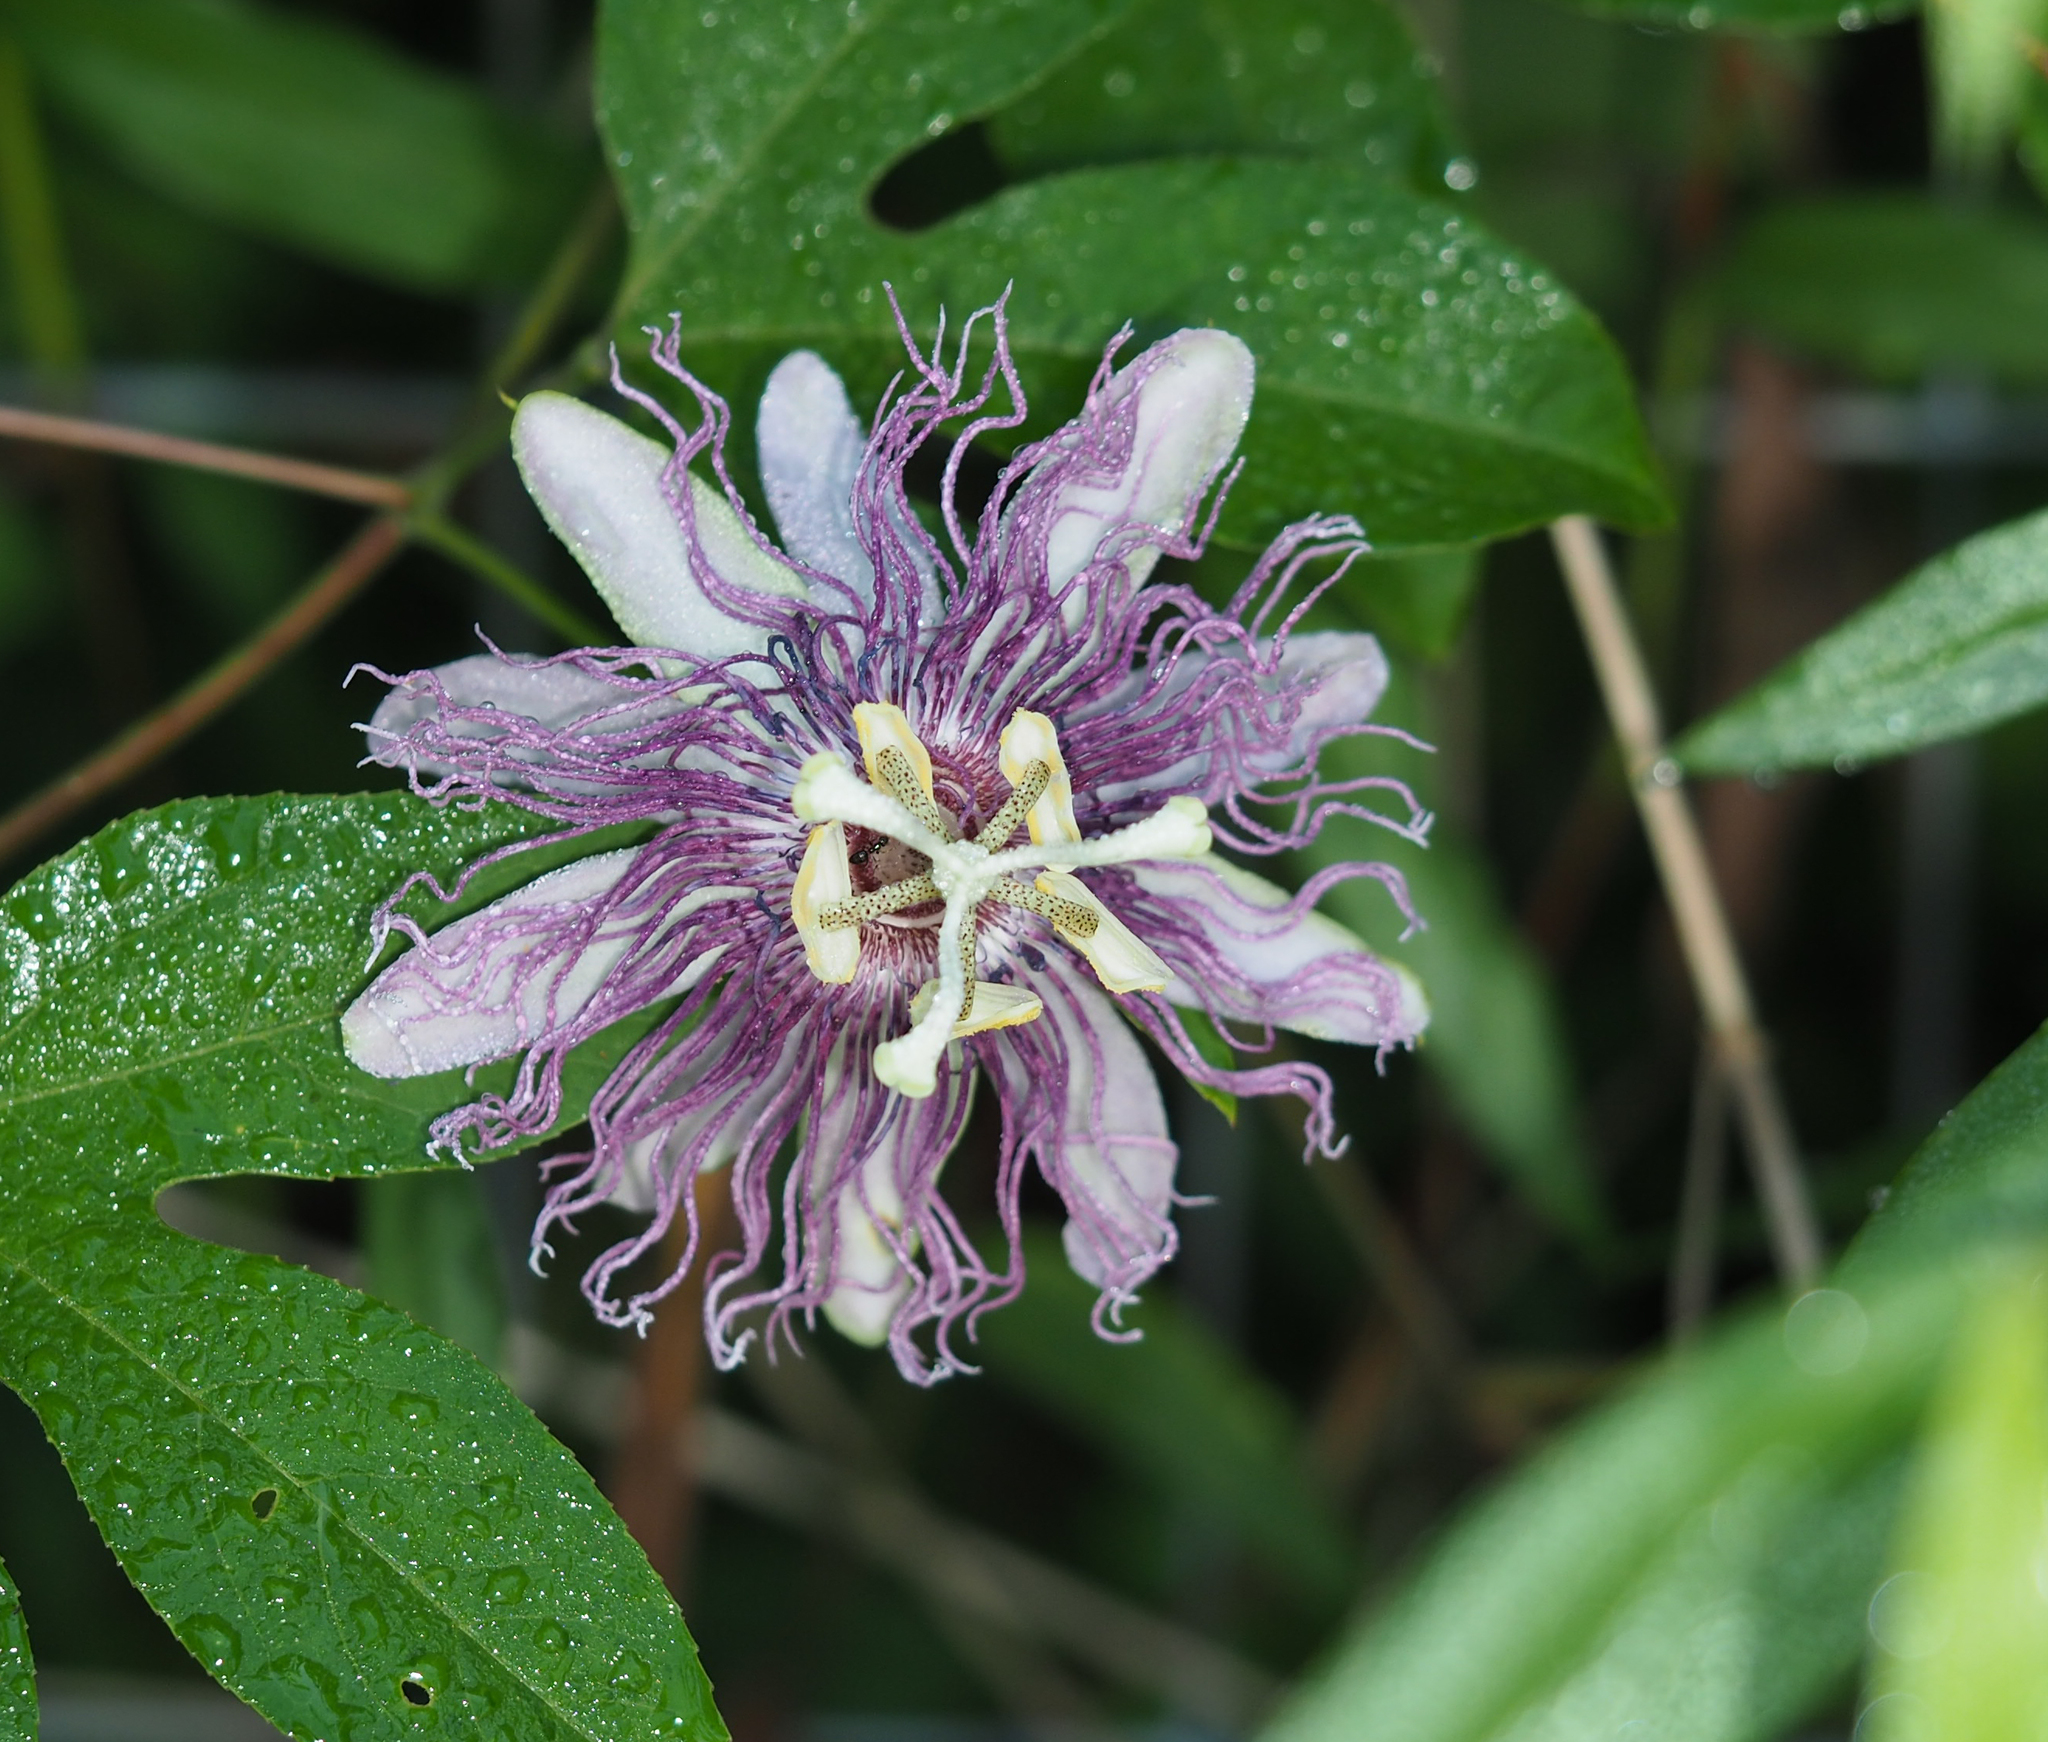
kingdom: Plantae
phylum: Tracheophyta
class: Magnoliopsida
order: Malpighiales
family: Passifloraceae
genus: Passiflora
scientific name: Passiflora incarnata
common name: Apricot-vine
